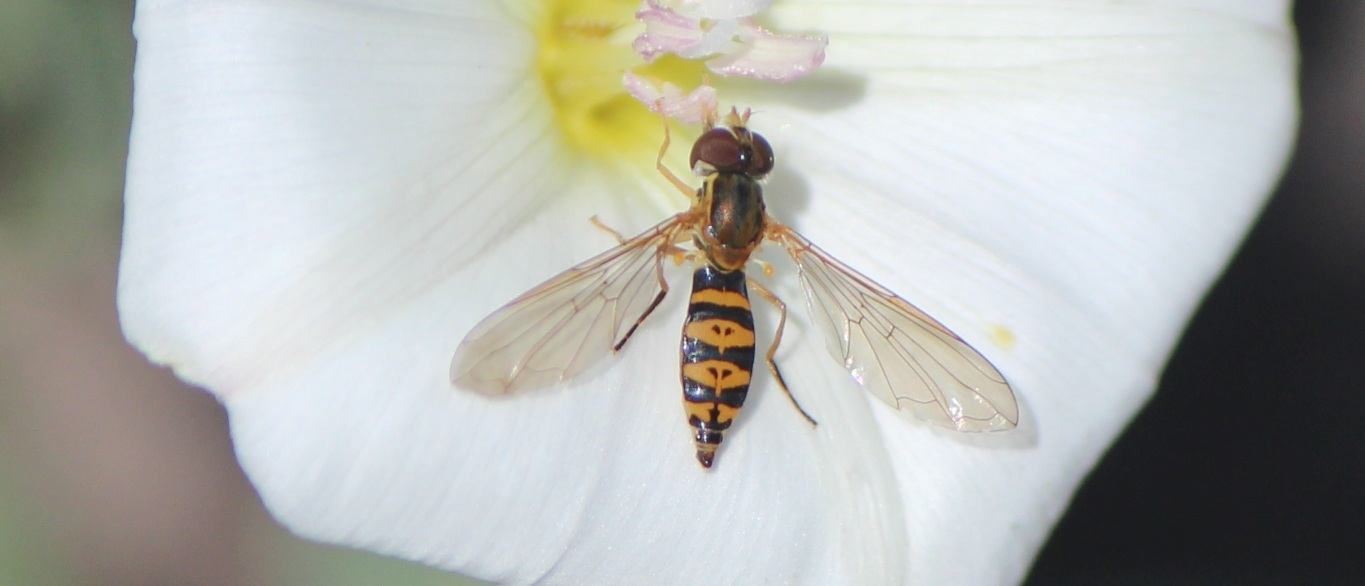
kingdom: Animalia
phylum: Arthropoda
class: Insecta
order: Diptera
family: Syrphidae
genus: Toxomerus
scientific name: Toxomerus mutuus
